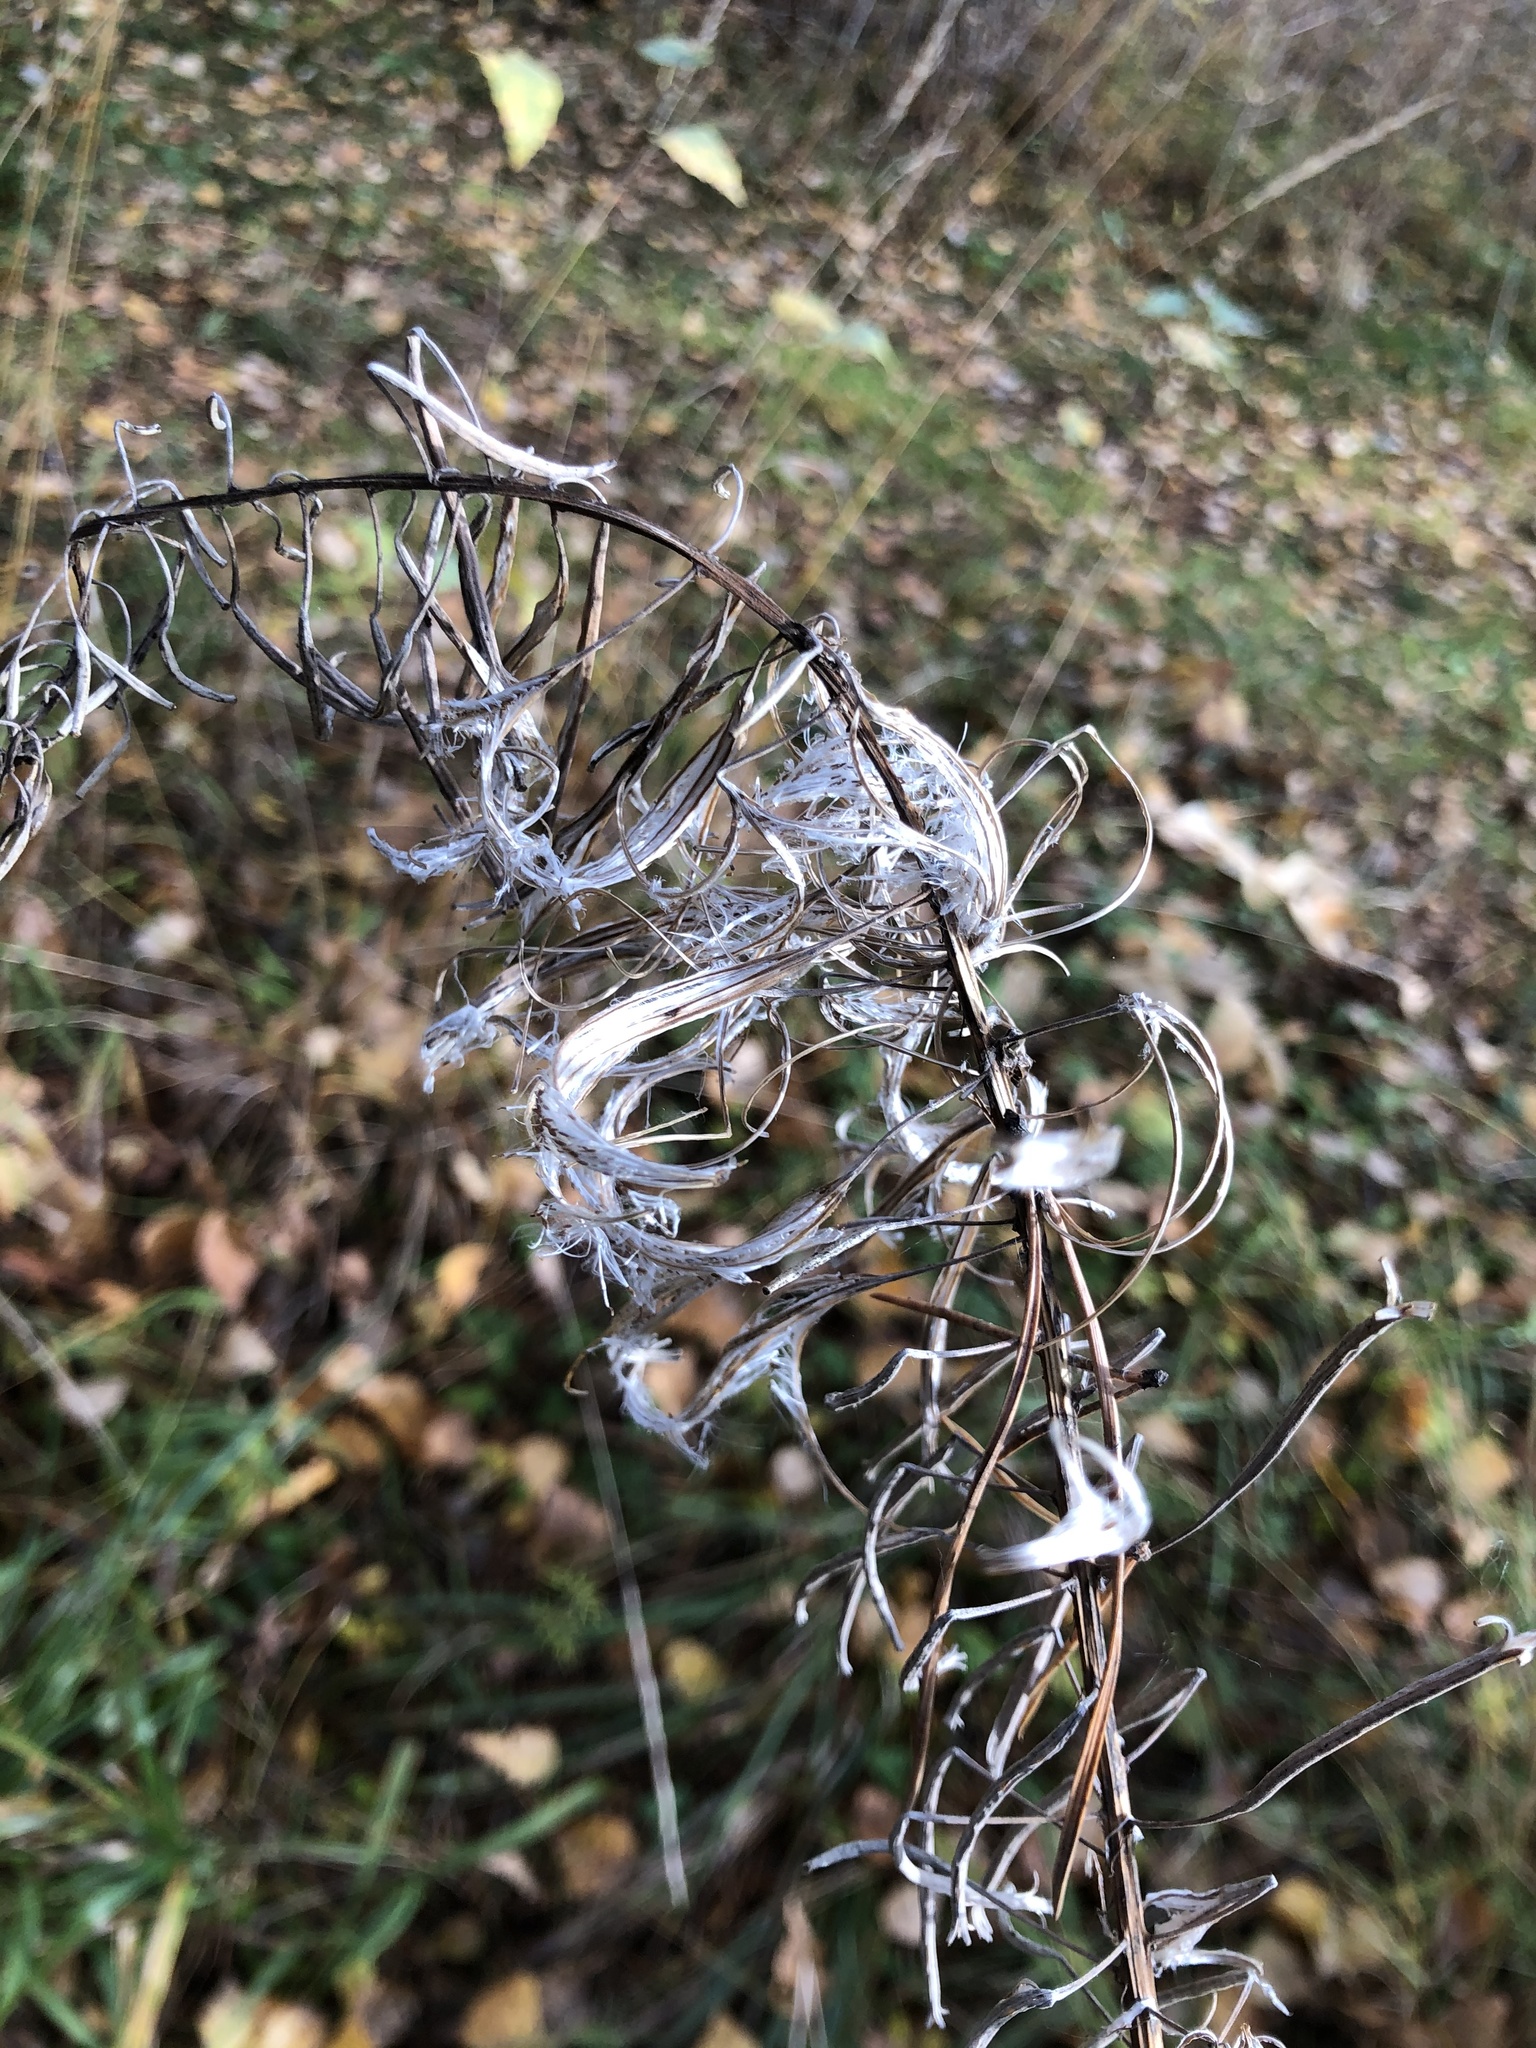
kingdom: Plantae
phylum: Tracheophyta
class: Magnoliopsida
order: Myrtales
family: Onagraceae
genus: Chamaenerion
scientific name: Chamaenerion angustifolium
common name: Fireweed
